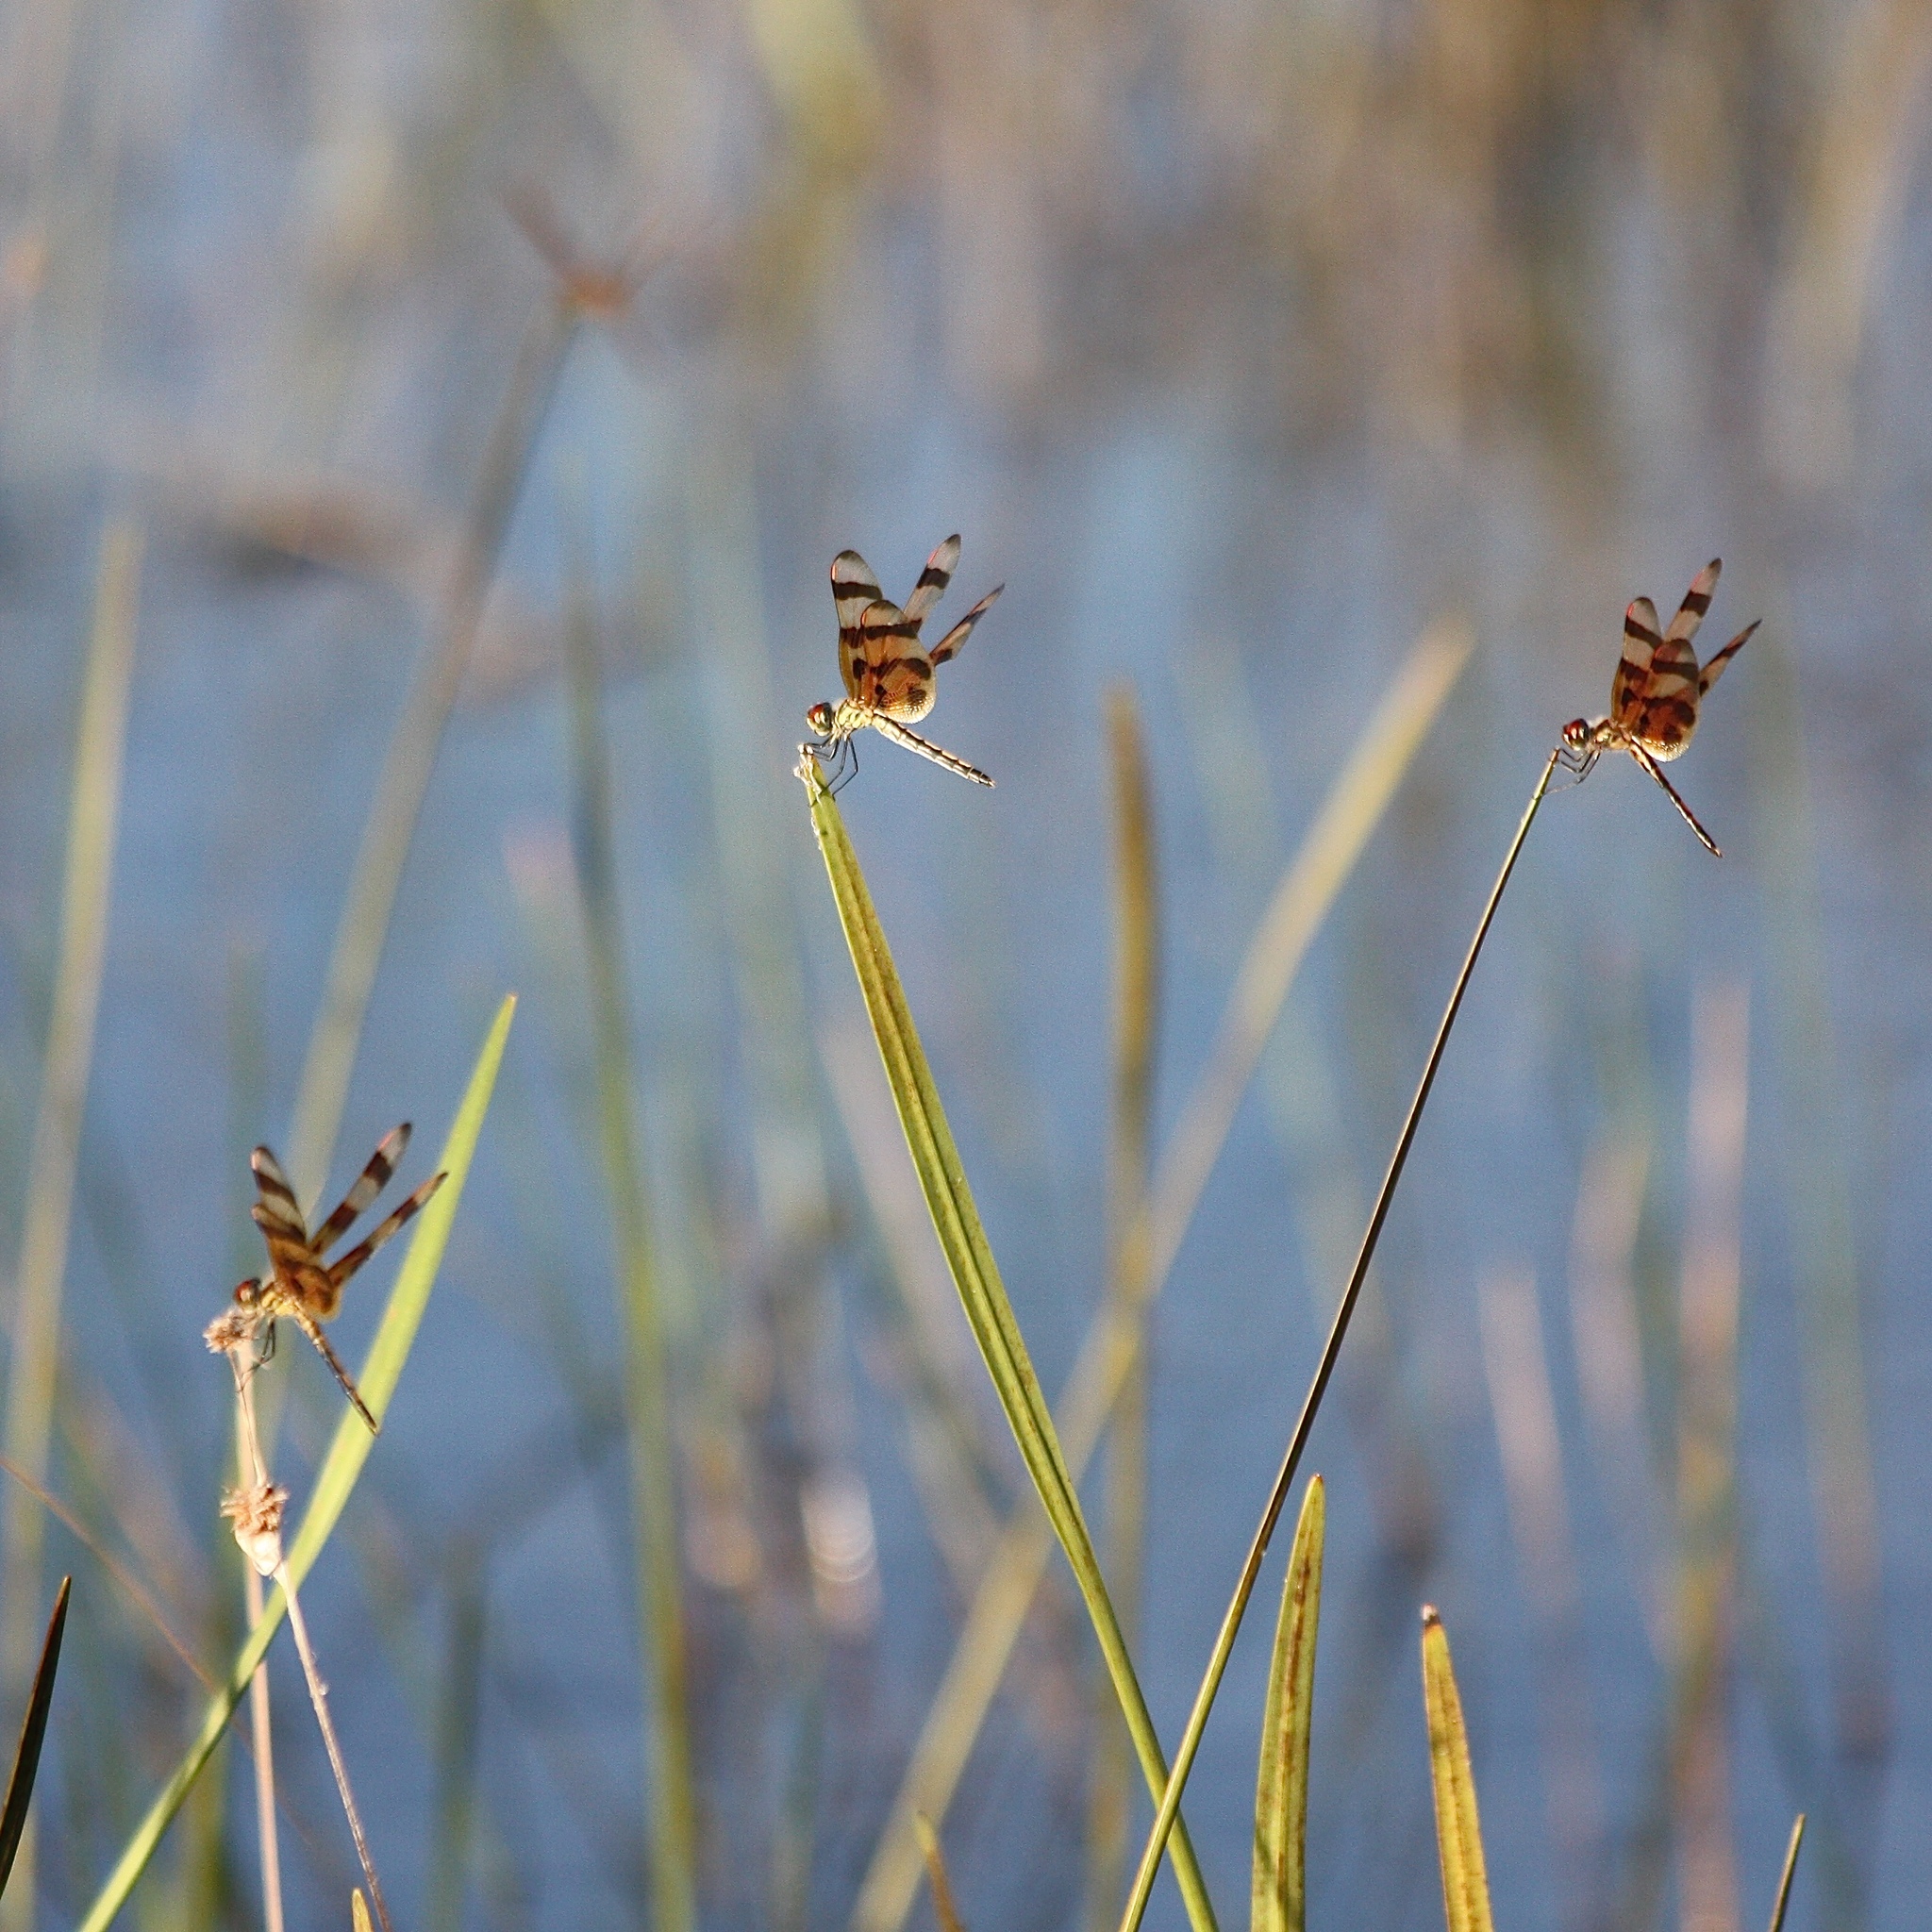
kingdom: Animalia
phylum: Arthropoda
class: Insecta
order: Odonata
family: Libellulidae
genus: Celithemis
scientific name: Celithemis eponina
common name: Halloween pennant
